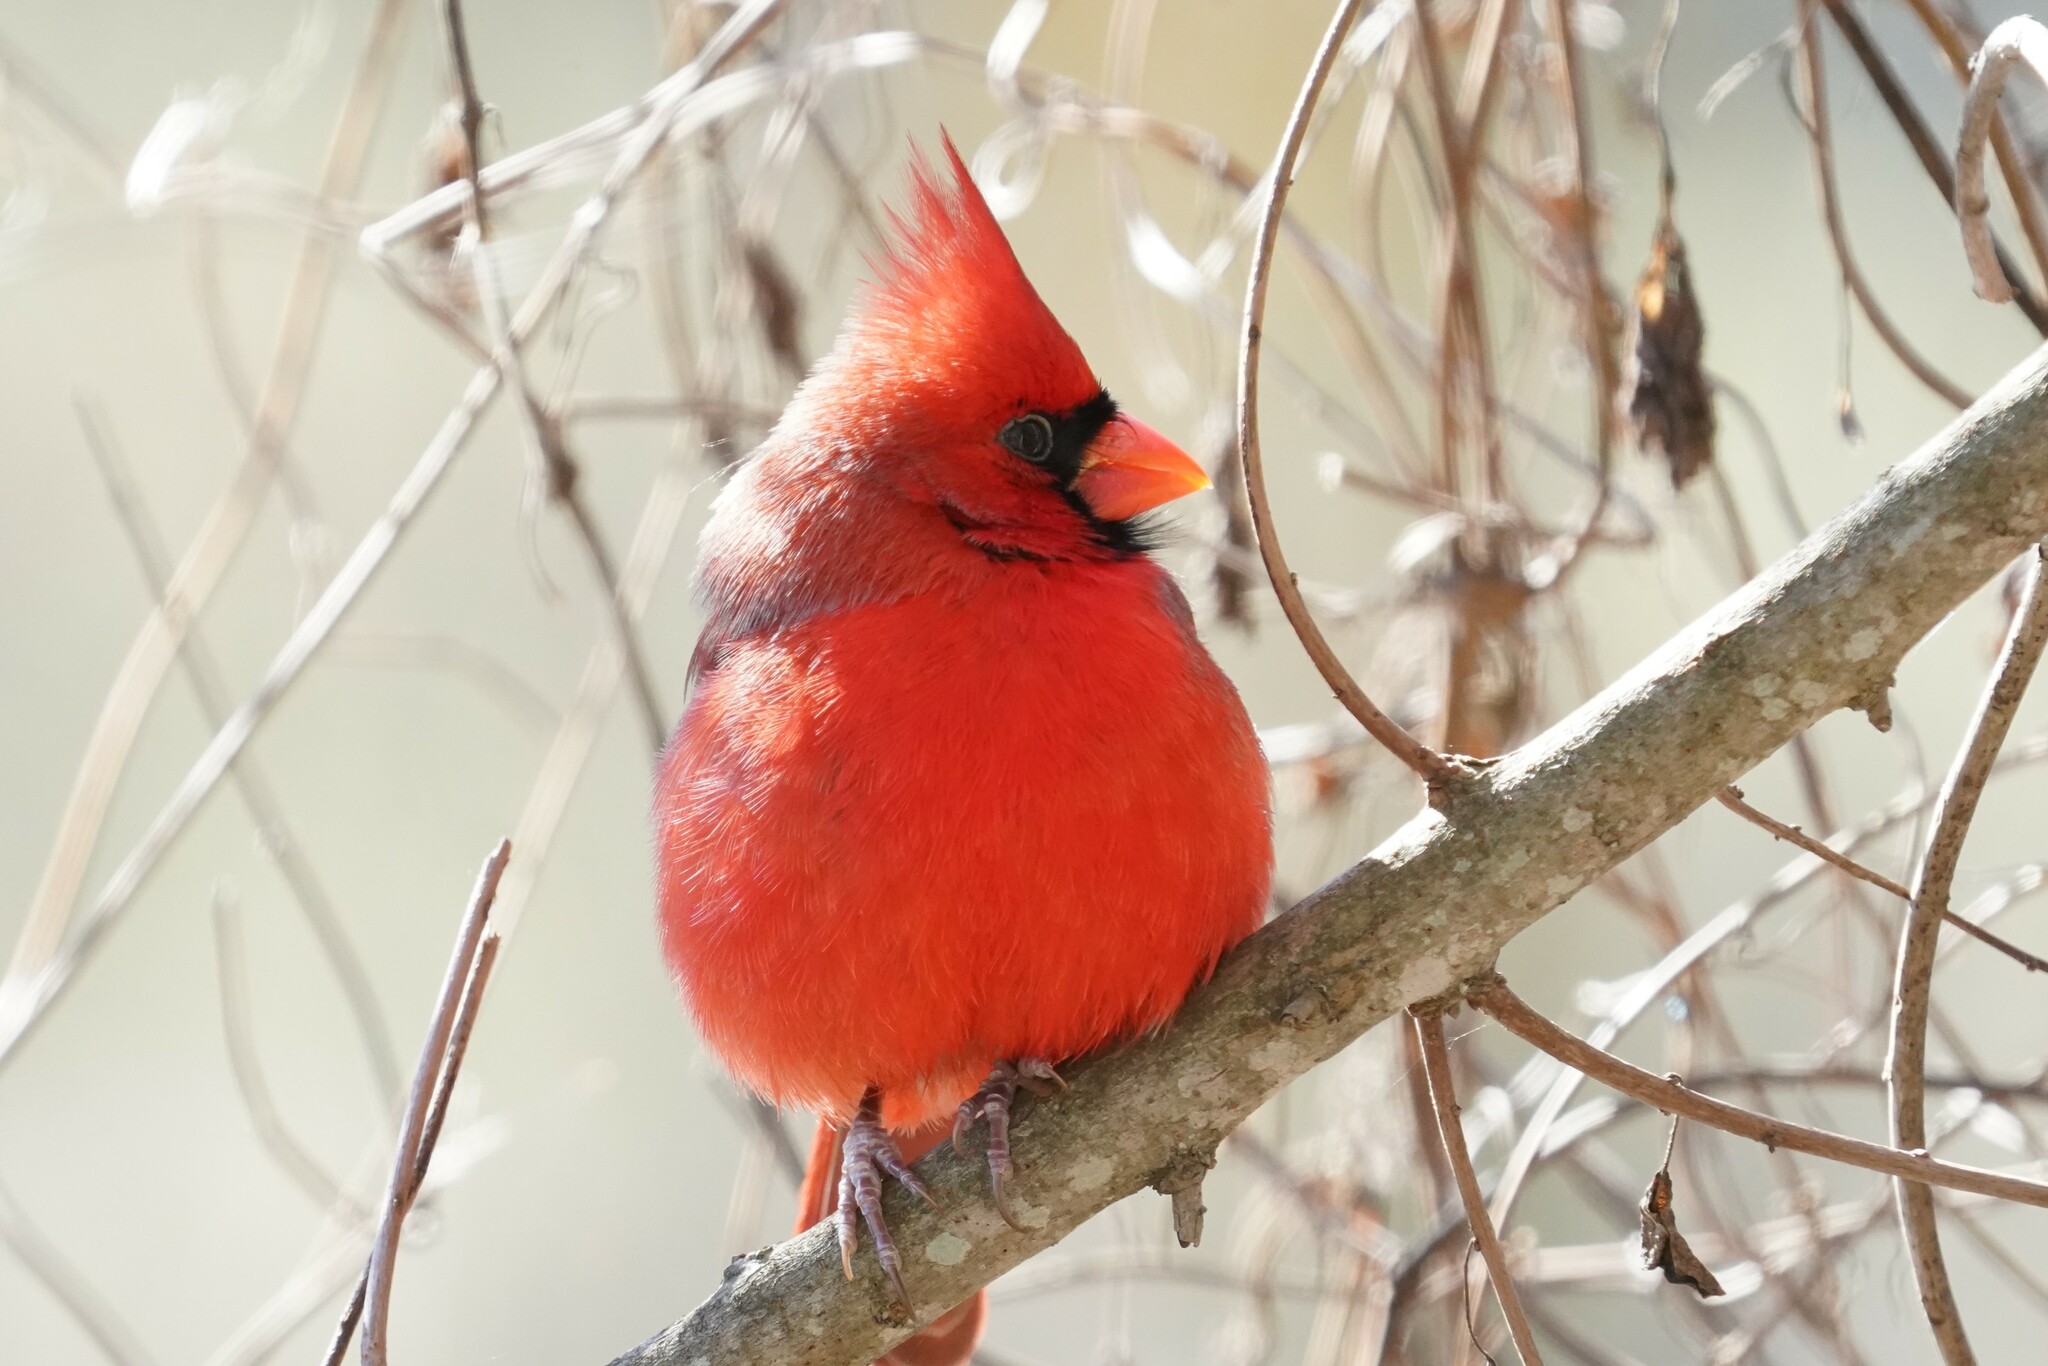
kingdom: Animalia
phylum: Chordata
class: Aves
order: Passeriformes
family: Cardinalidae
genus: Cardinalis
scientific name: Cardinalis cardinalis
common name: Northern cardinal
